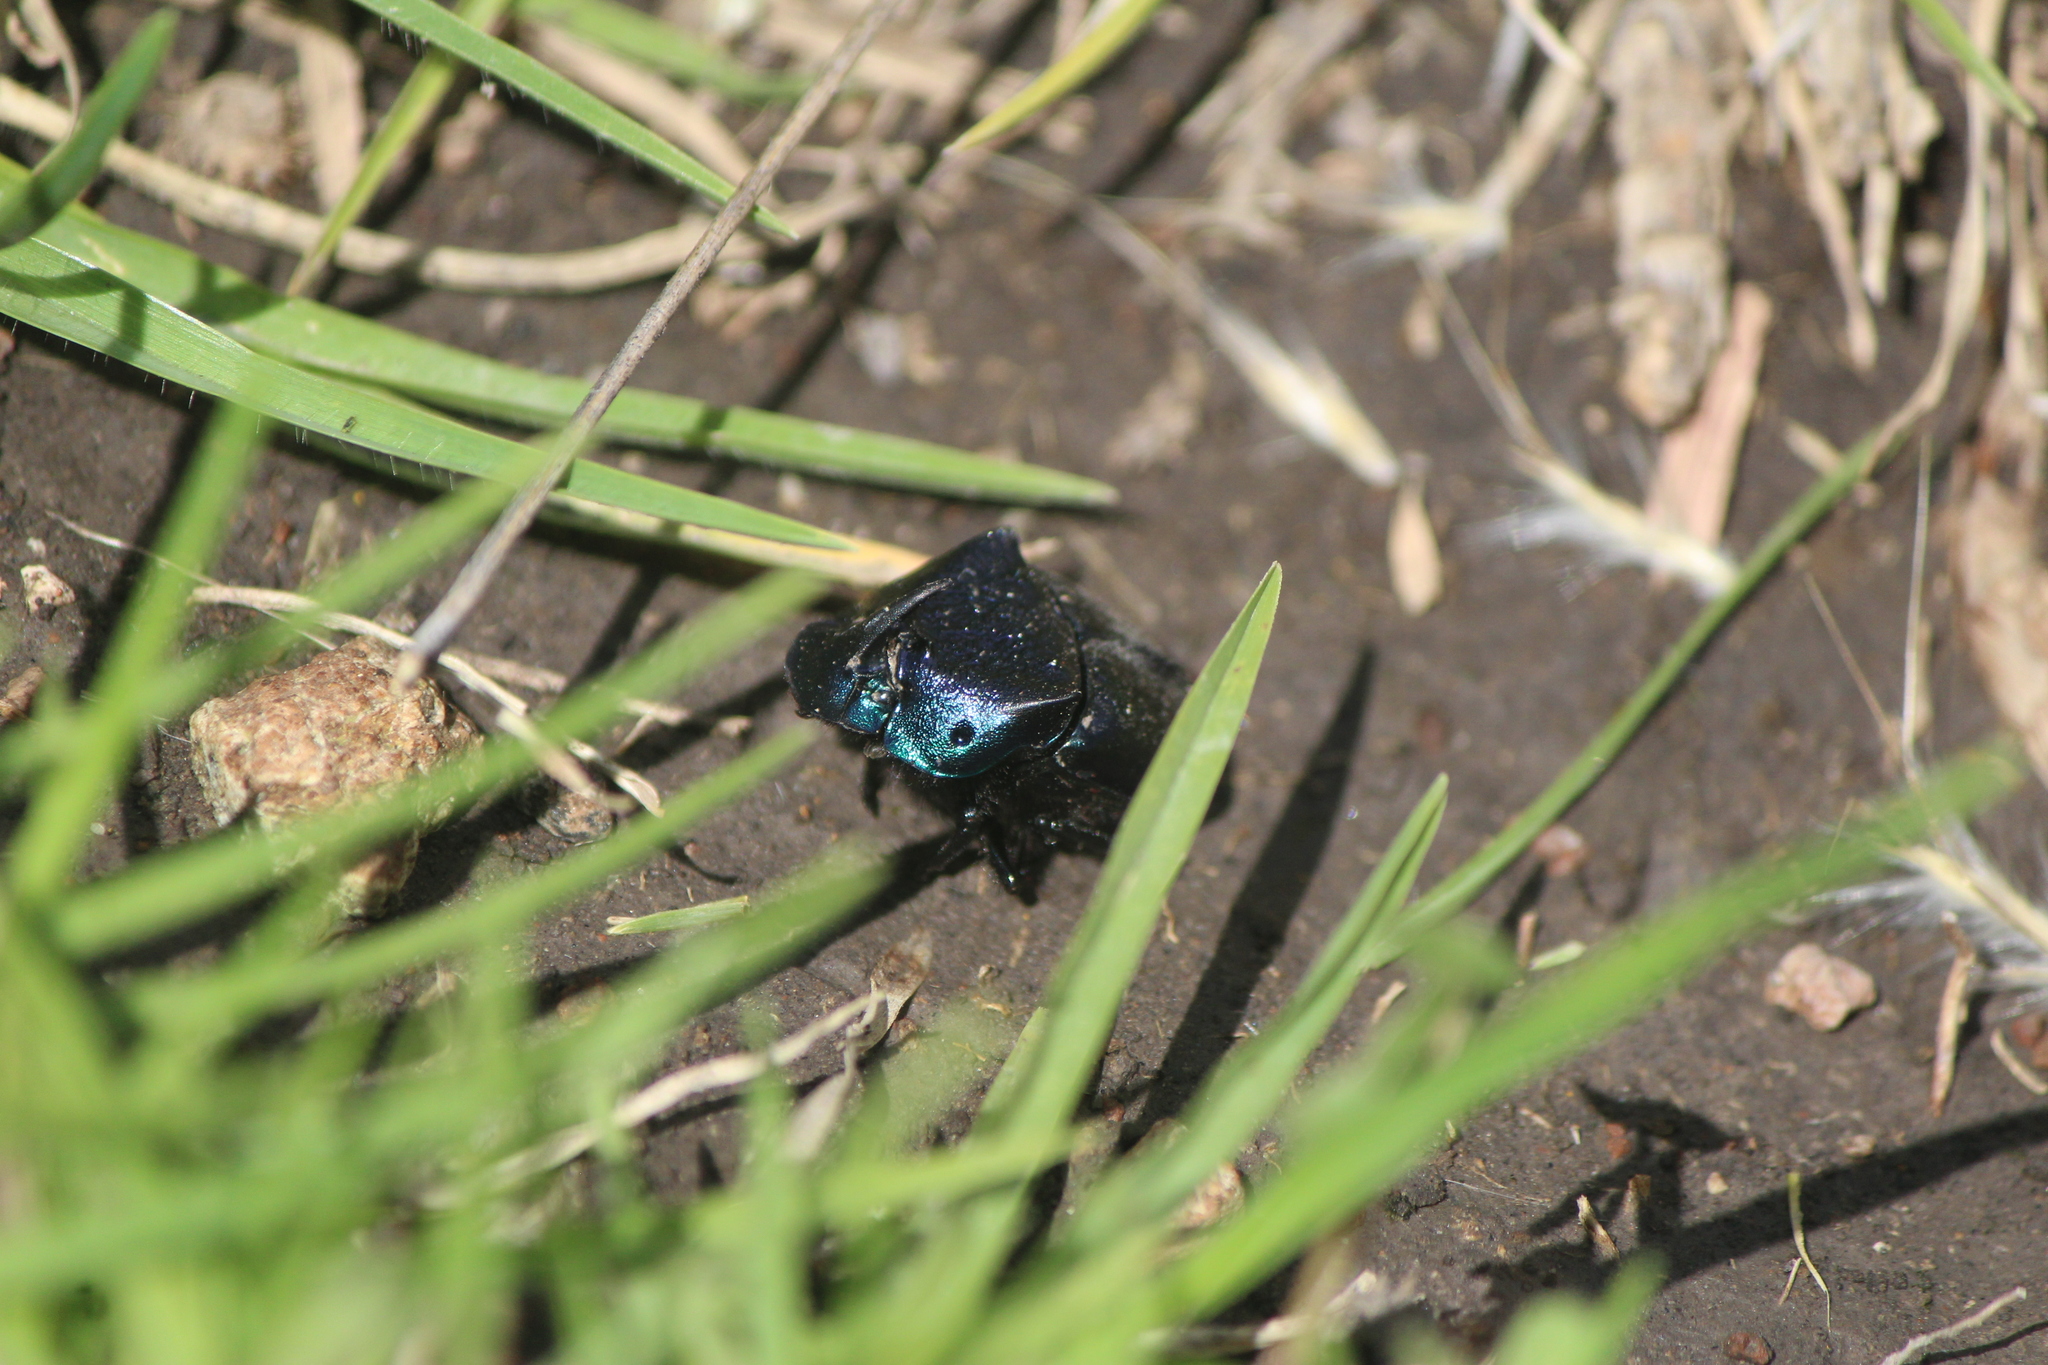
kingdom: Animalia
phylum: Arthropoda
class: Insecta
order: Coleoptera
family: Scarabaeidae
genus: Phanaeus
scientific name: Phanaeus adonis
